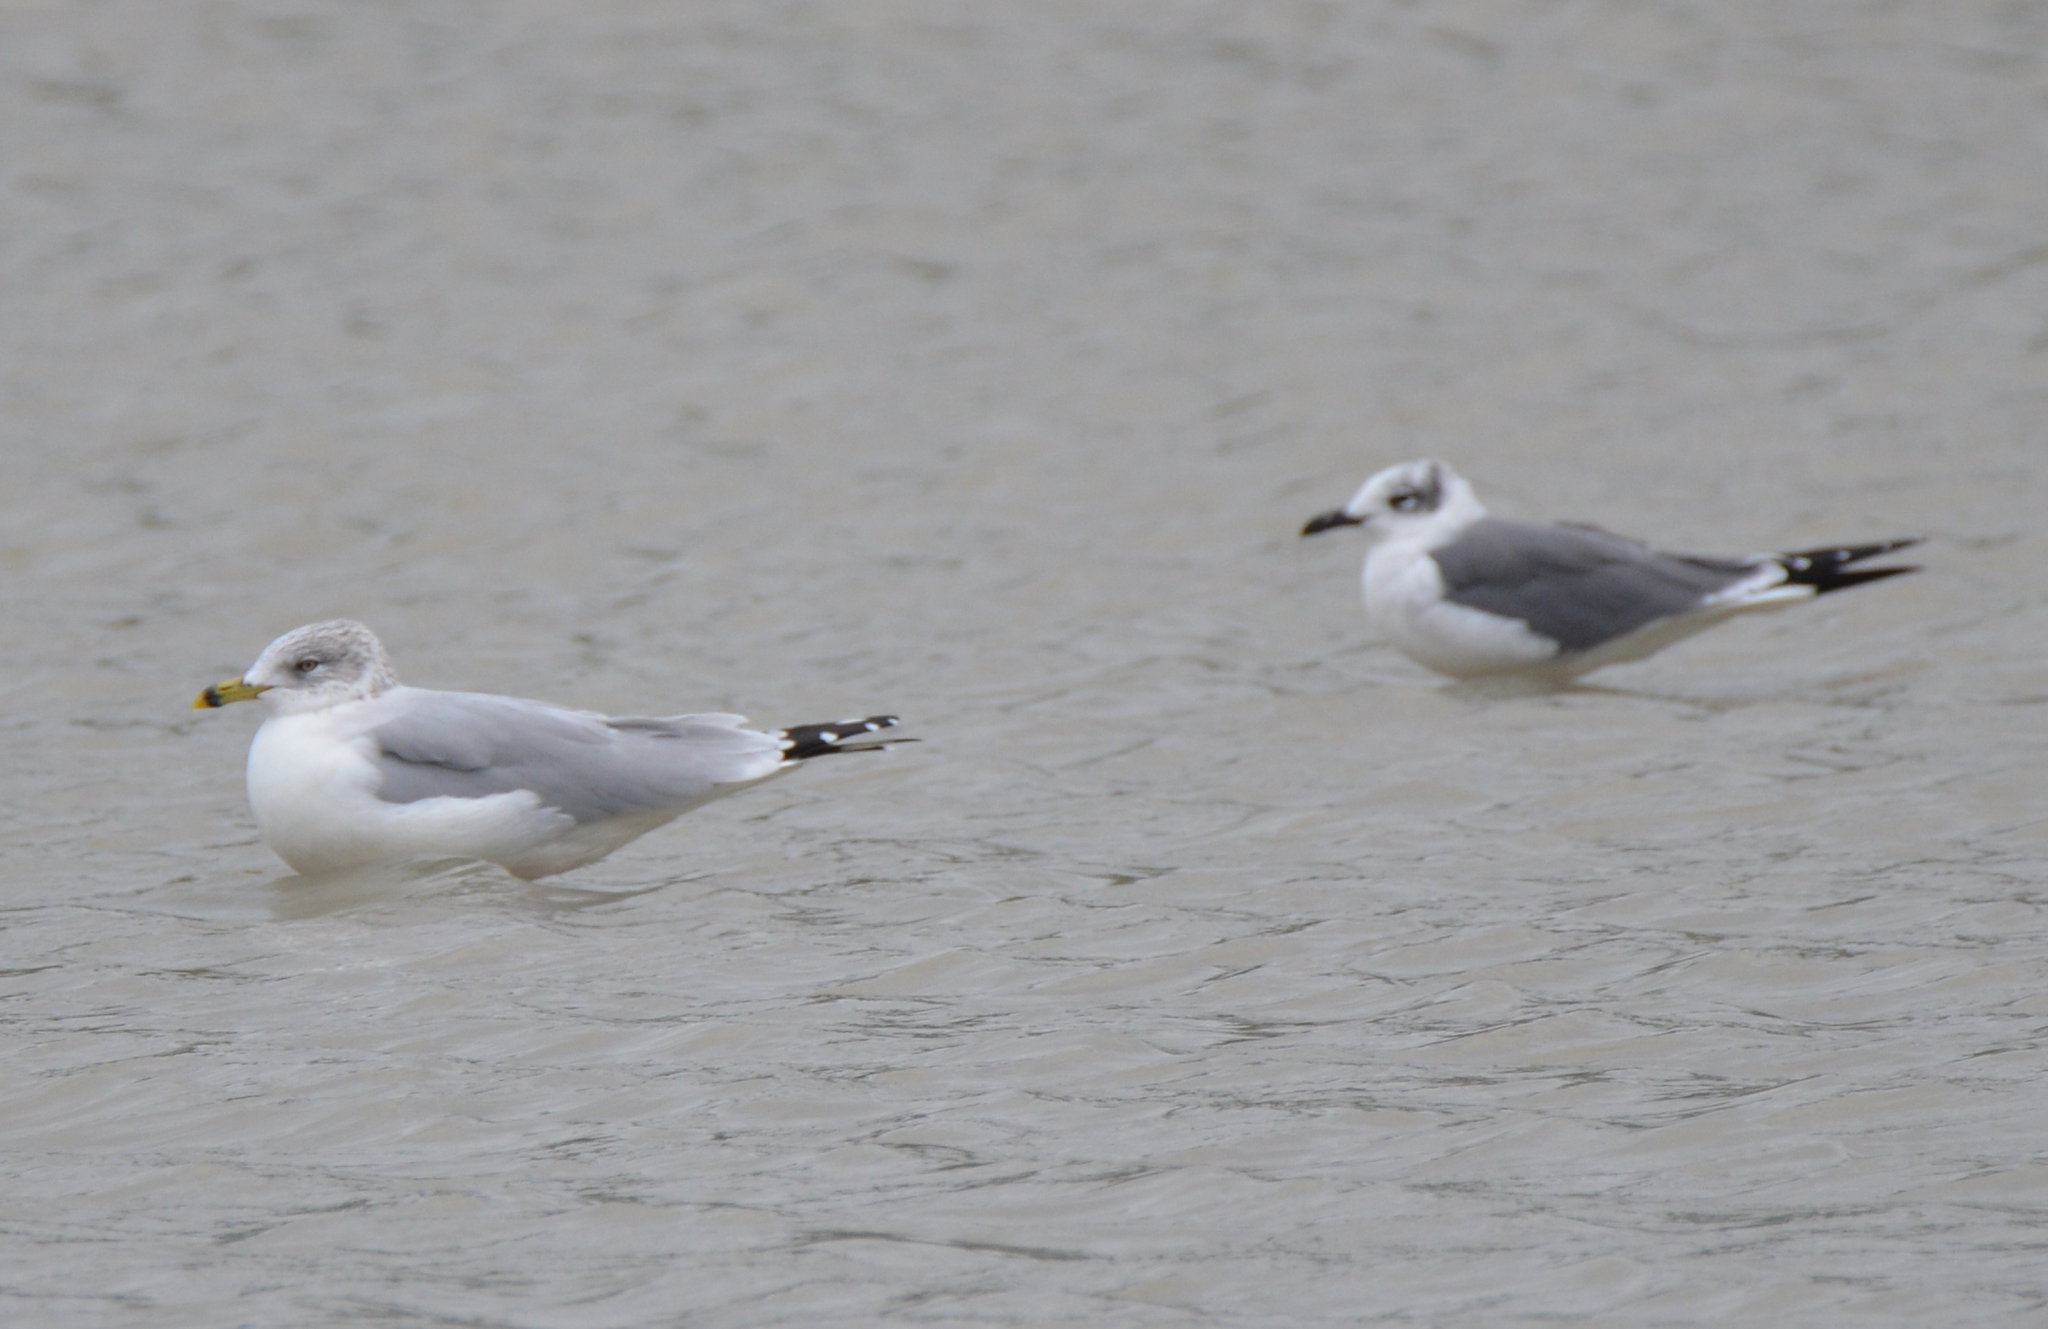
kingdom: Animalia
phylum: Chordata
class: Aves
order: Charadriiformes
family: Laridae
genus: Larus
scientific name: Larus delawarensis
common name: Ring-billed gull
